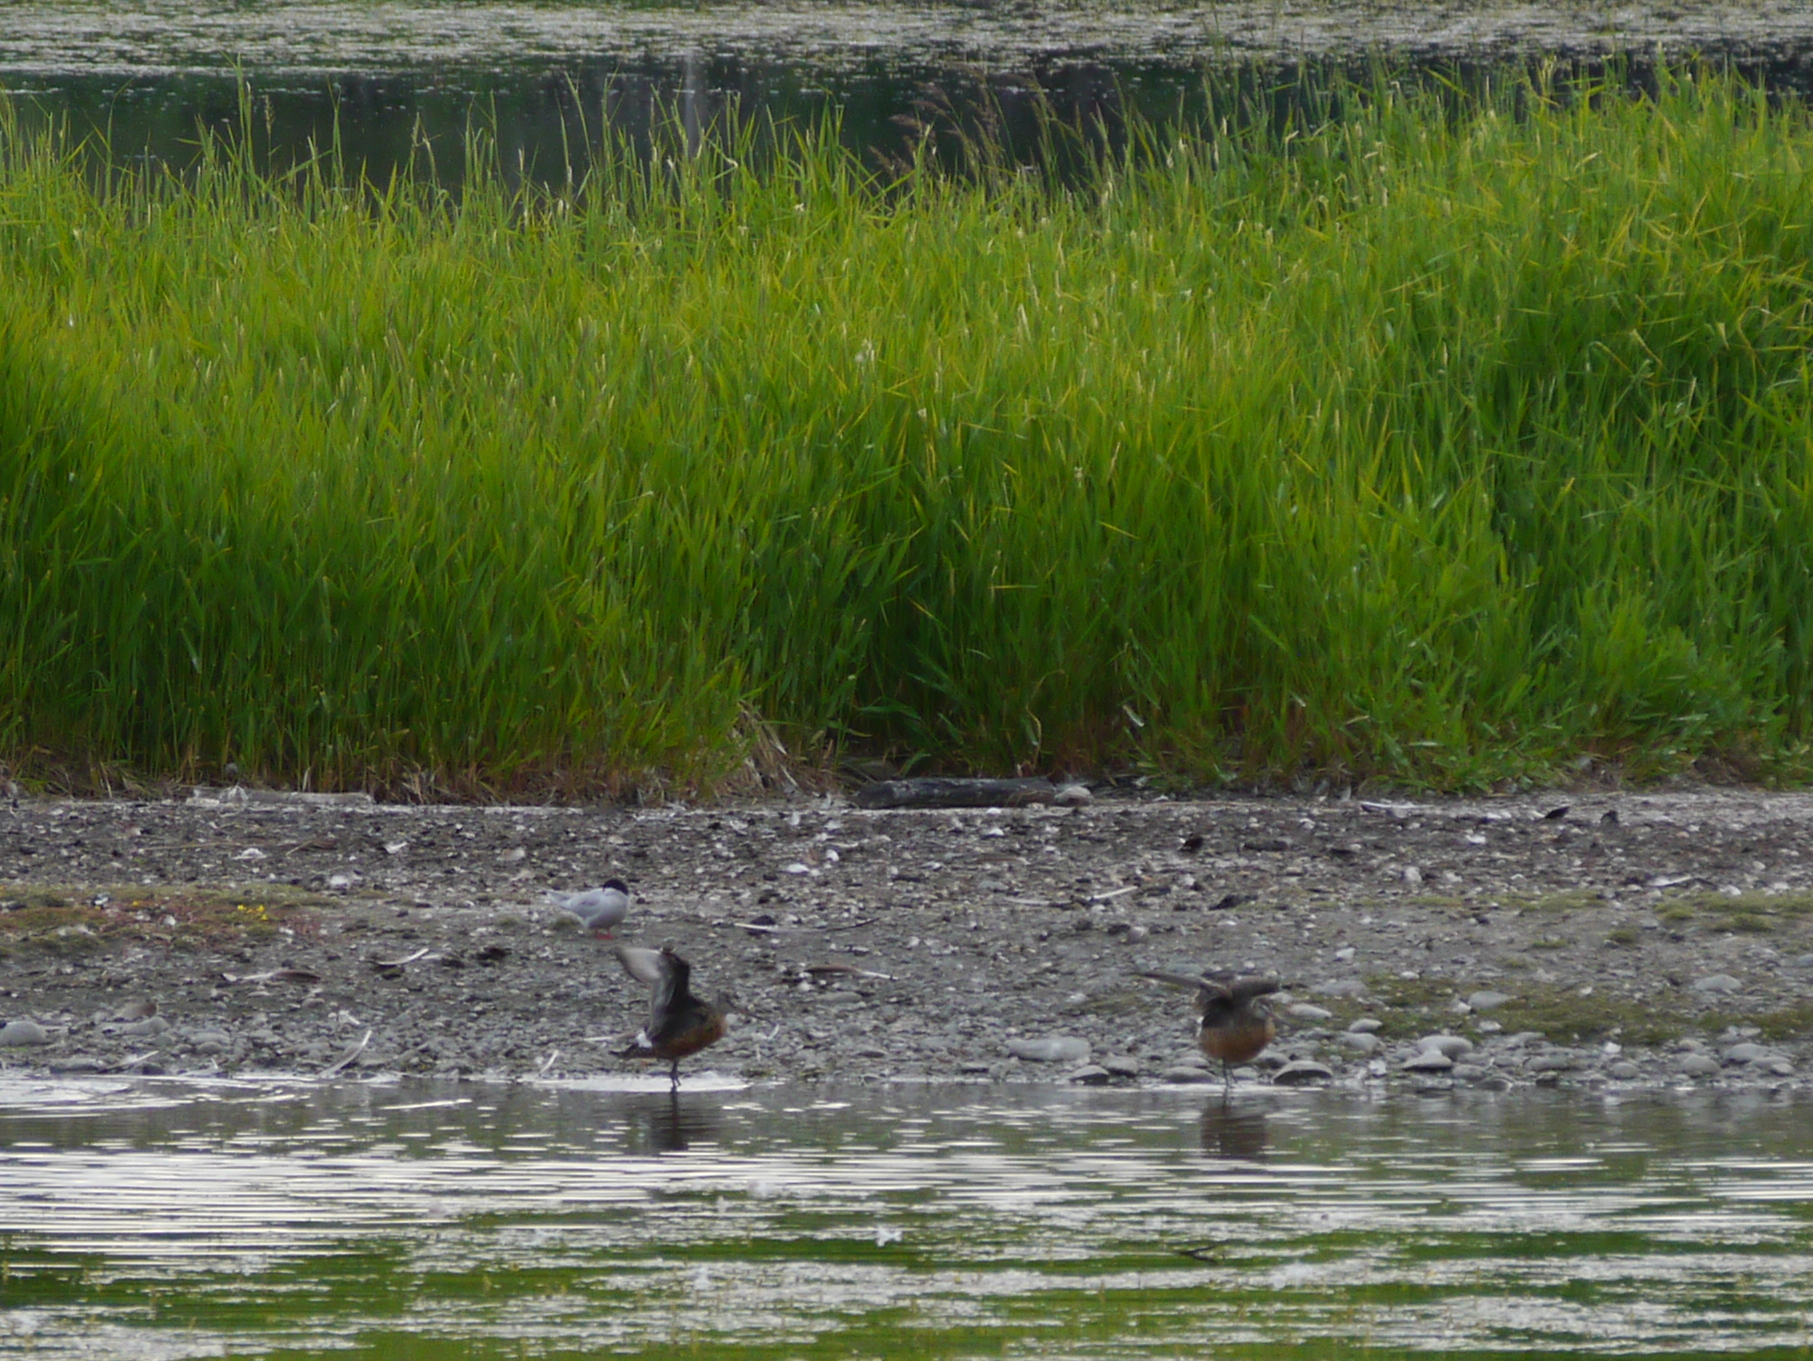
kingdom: Animalia
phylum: Chordata
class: Aves
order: Charadriiformes
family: Scolopacidae
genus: Limosa
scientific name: Limosa haemastica
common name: Hudsonian godwit
